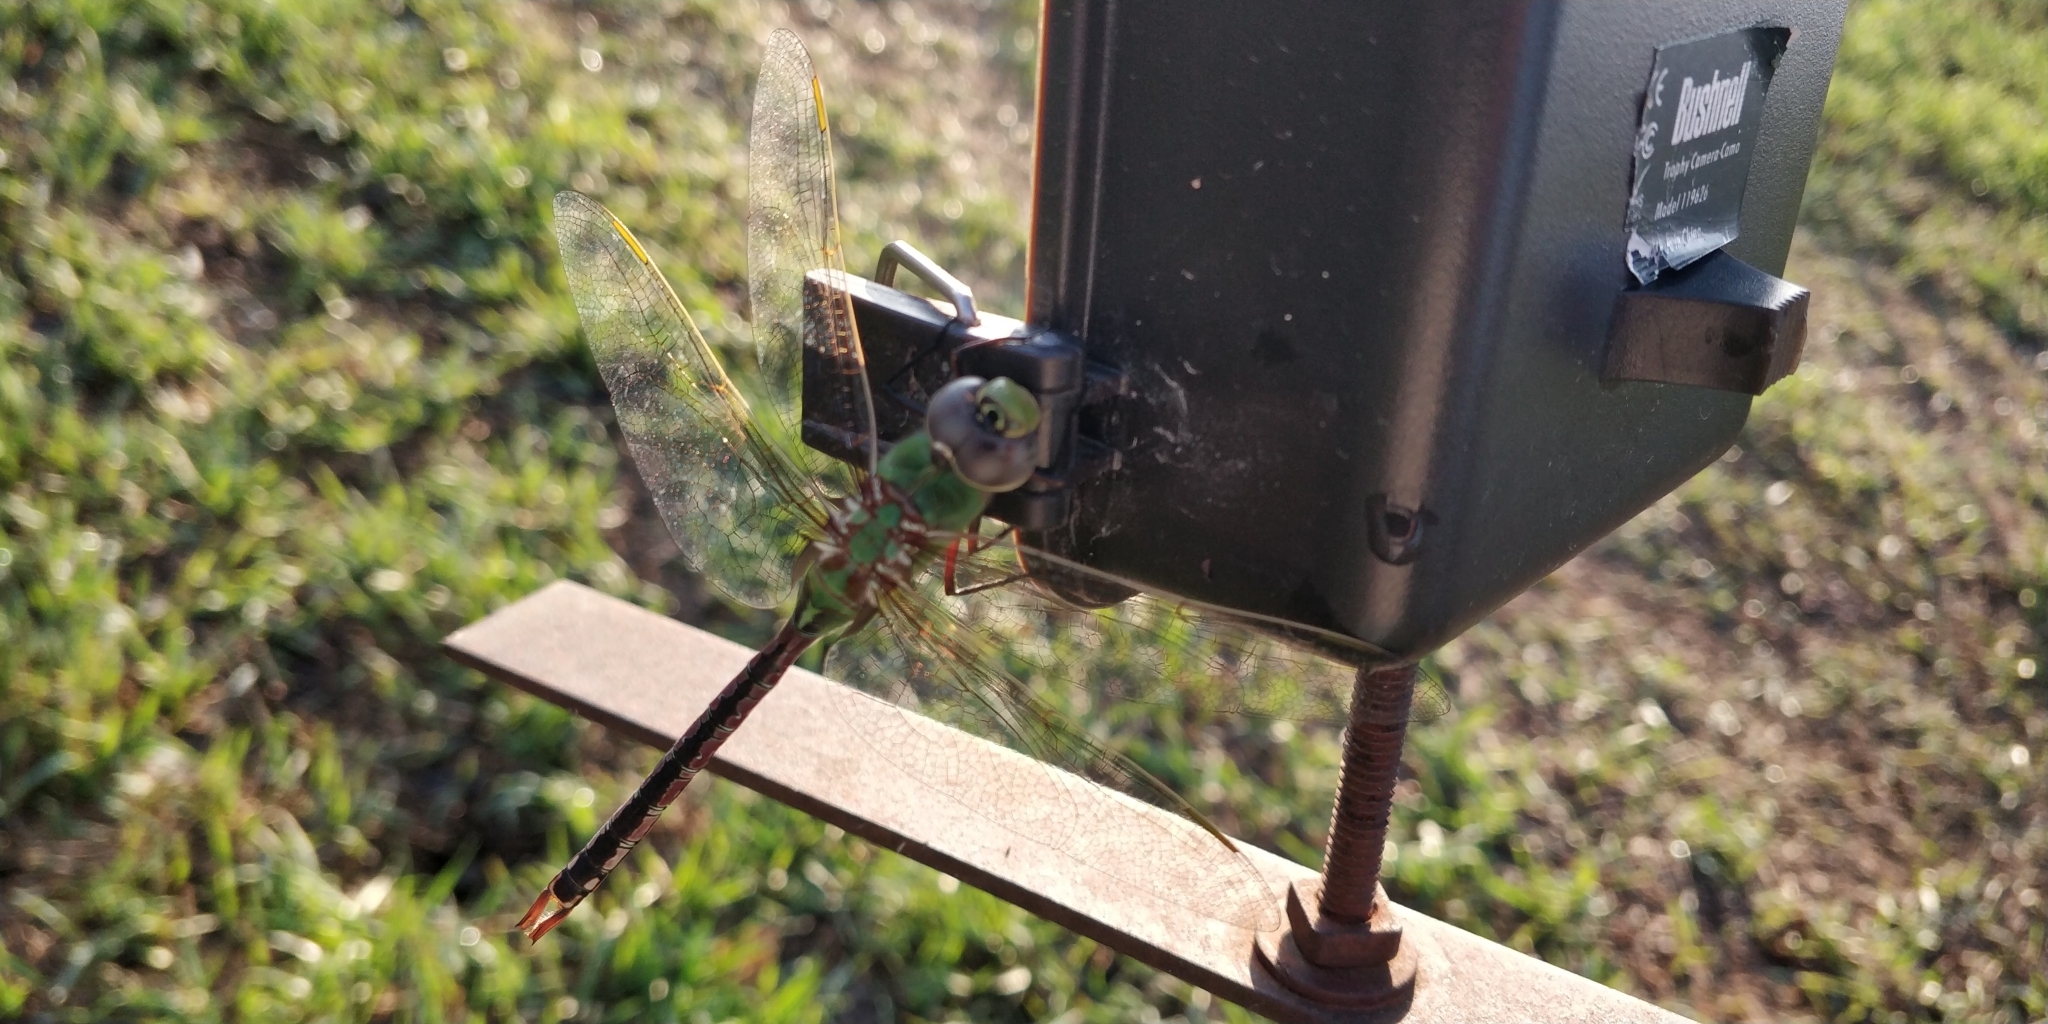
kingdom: Animalia
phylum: Arthropoda
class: Insecta
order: Odonata
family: Aeshnidae
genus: Anax
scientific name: Anax junius
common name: Common green darner
